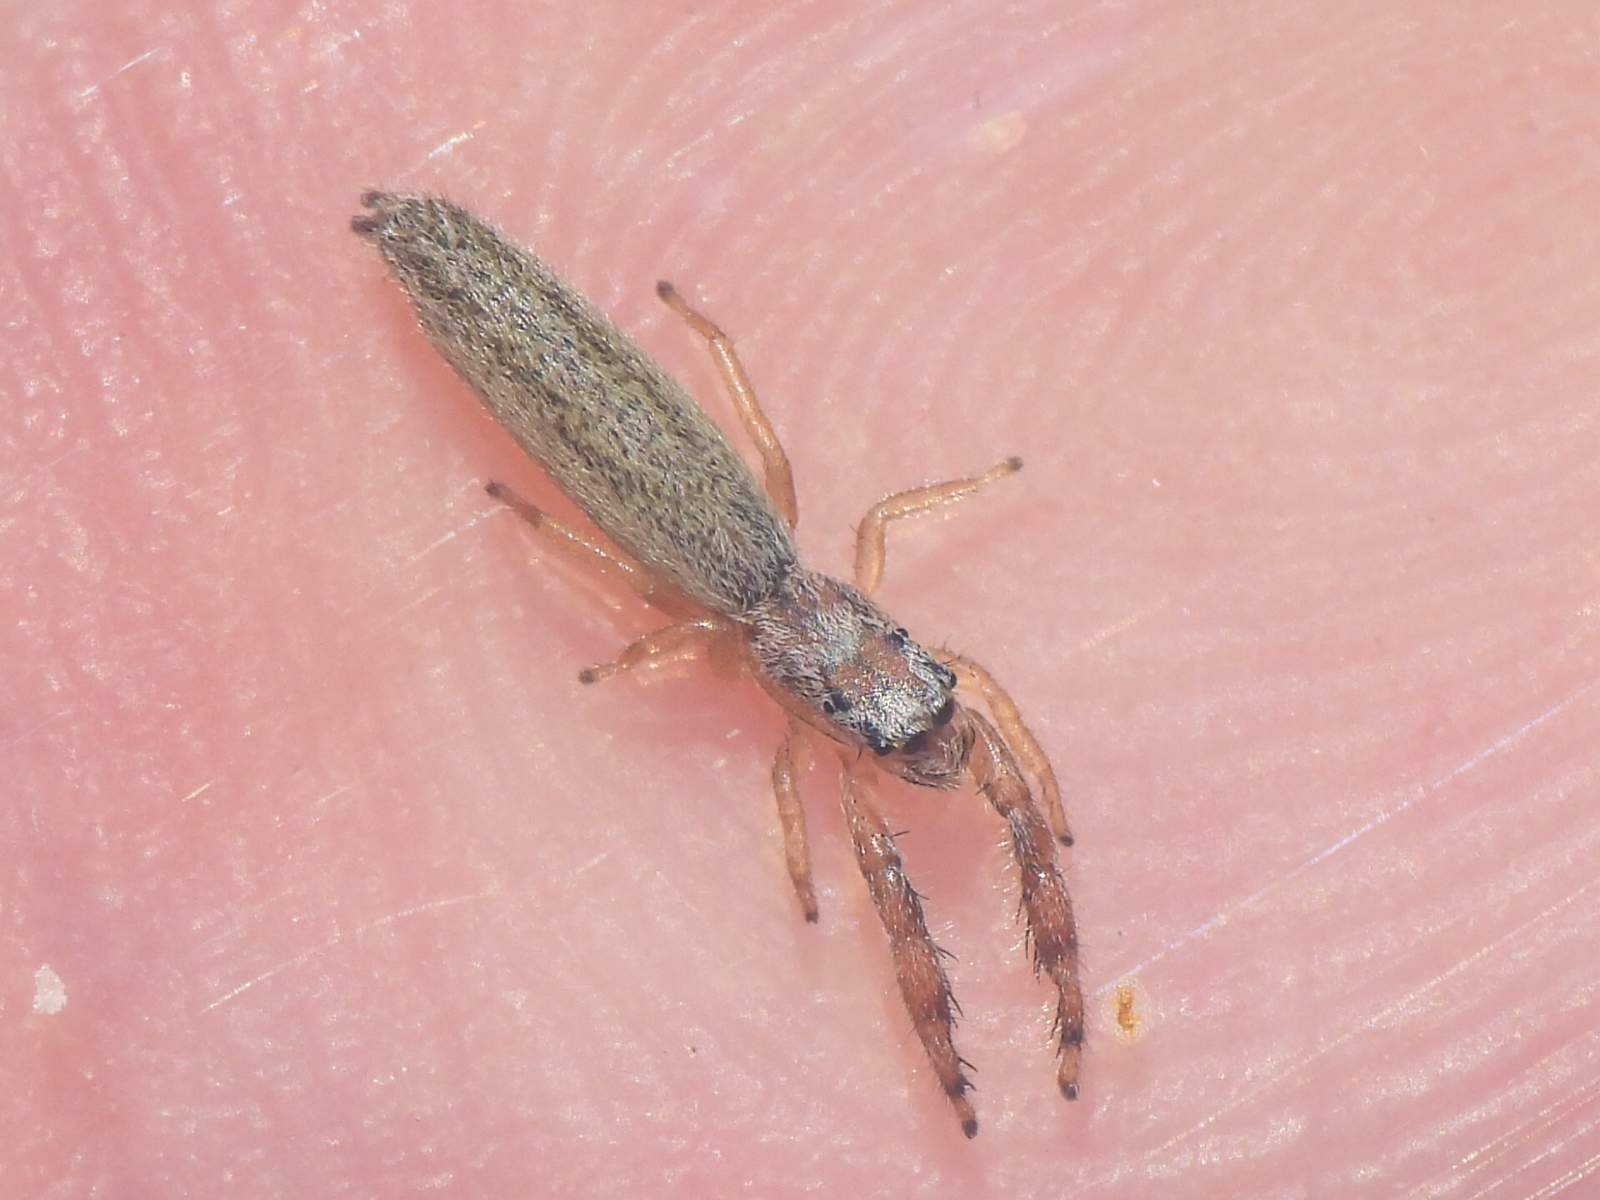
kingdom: Animalia
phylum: Arthropoda
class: Arachnida
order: Araneae
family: Salticidae
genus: Marpissa
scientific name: Marpissa pikei
